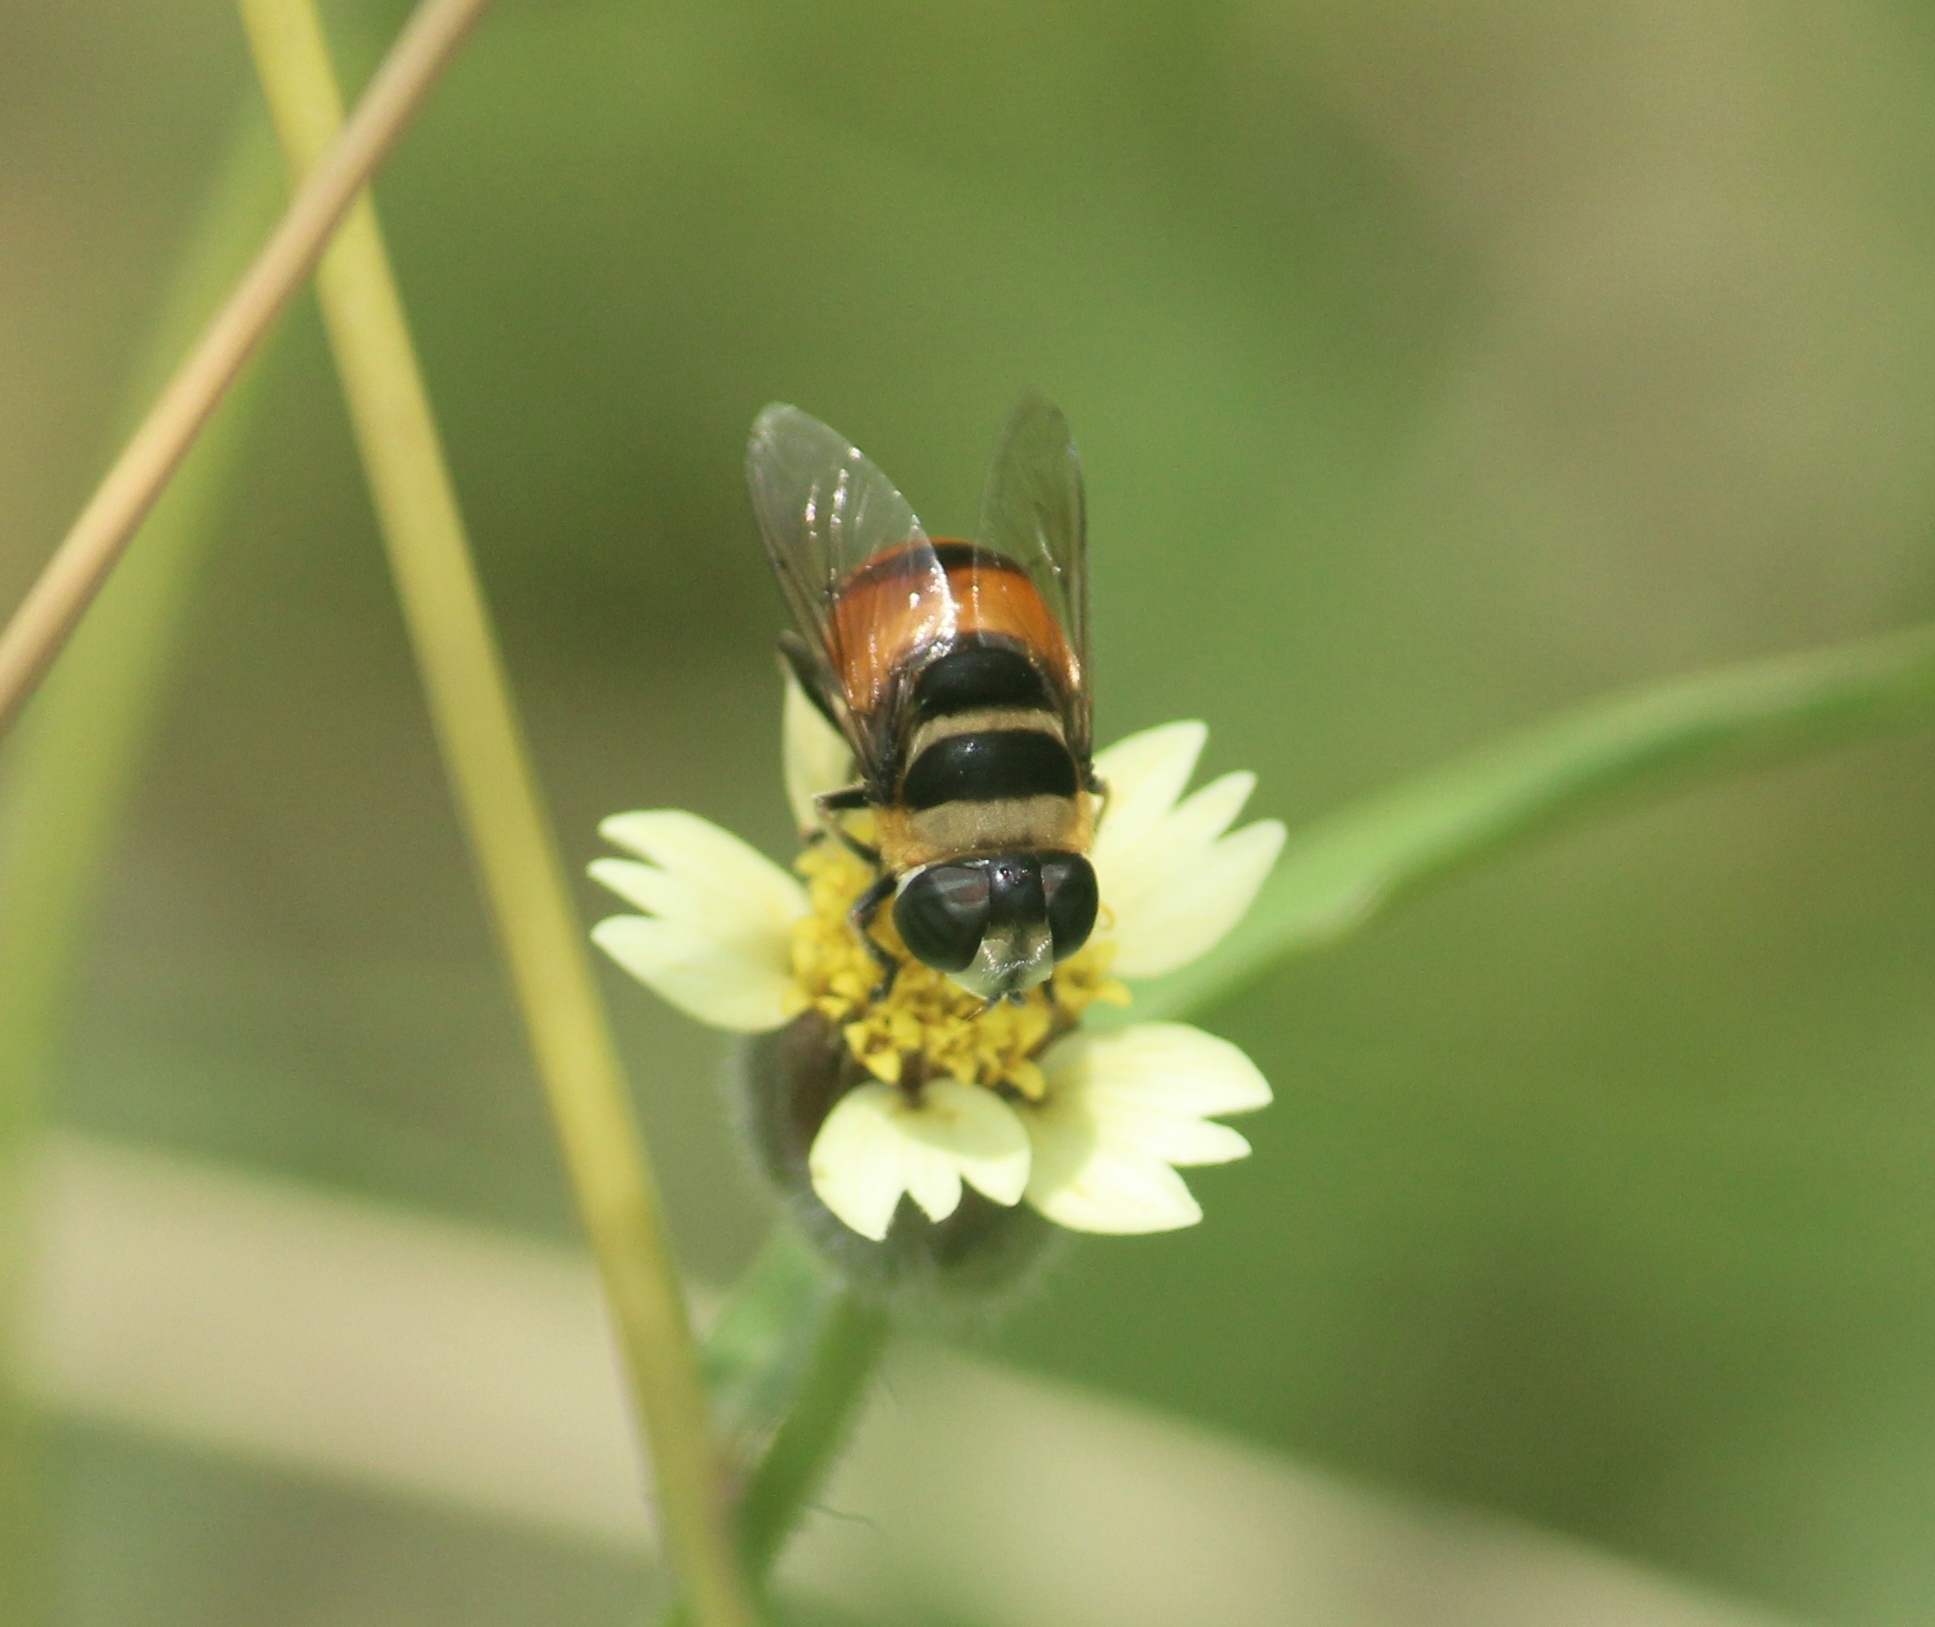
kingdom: Animalia
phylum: Arthropoda
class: Insecta
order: Diptera
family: Syrphidae
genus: Phytomia
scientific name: Phytomia argyrocephala
